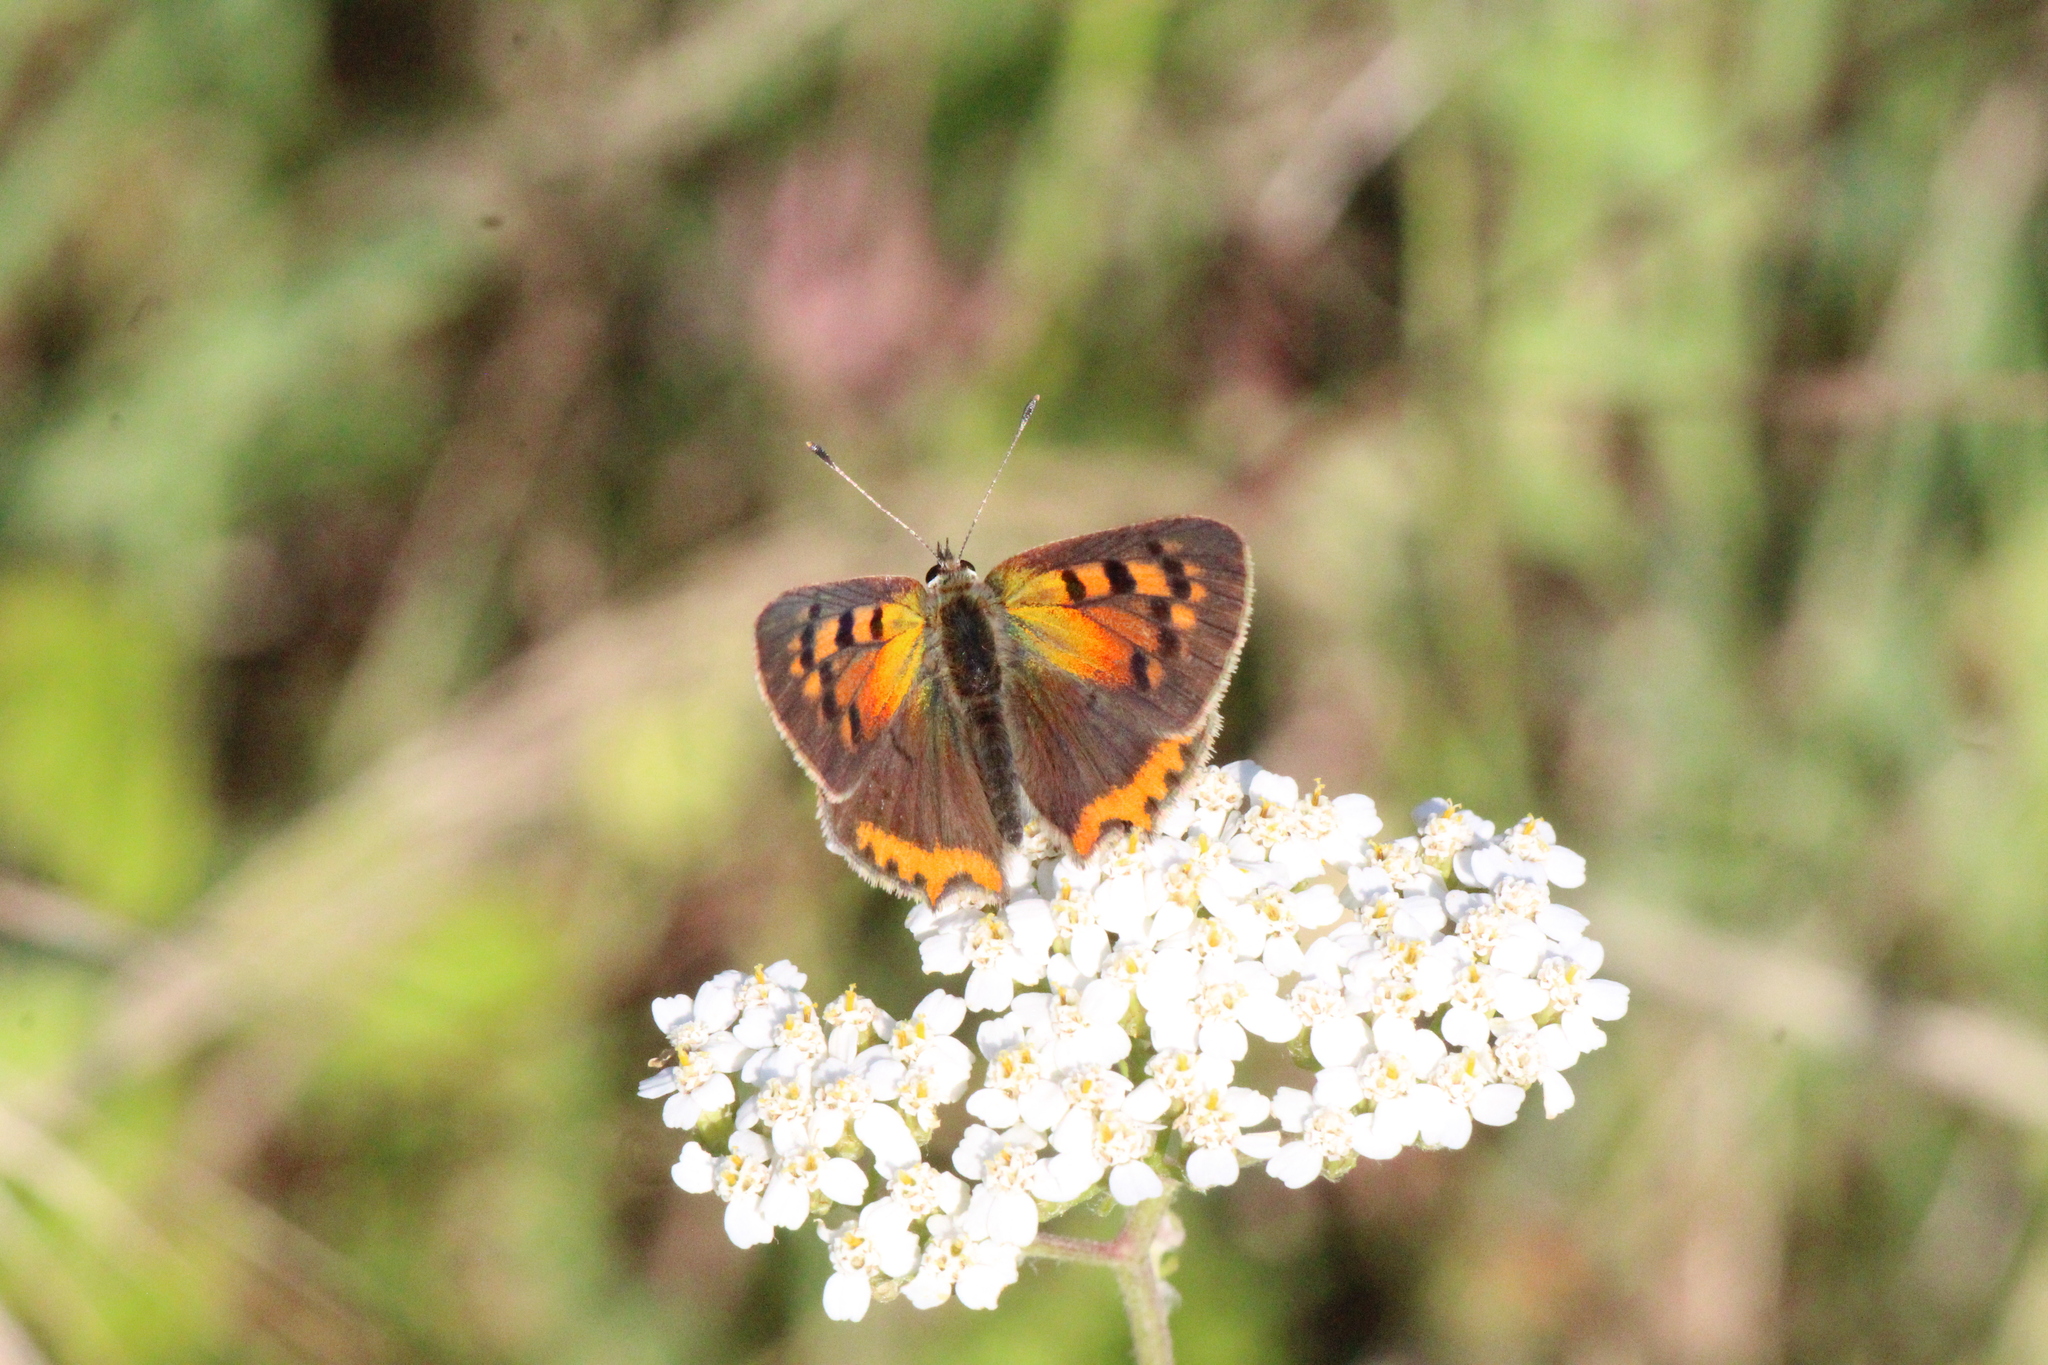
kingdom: Animalia
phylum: Arthropoda
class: Insecta
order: Lepidoptera
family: Lycaenidae
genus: Lycaena
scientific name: Lycaena phlaeas
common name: Small copper
